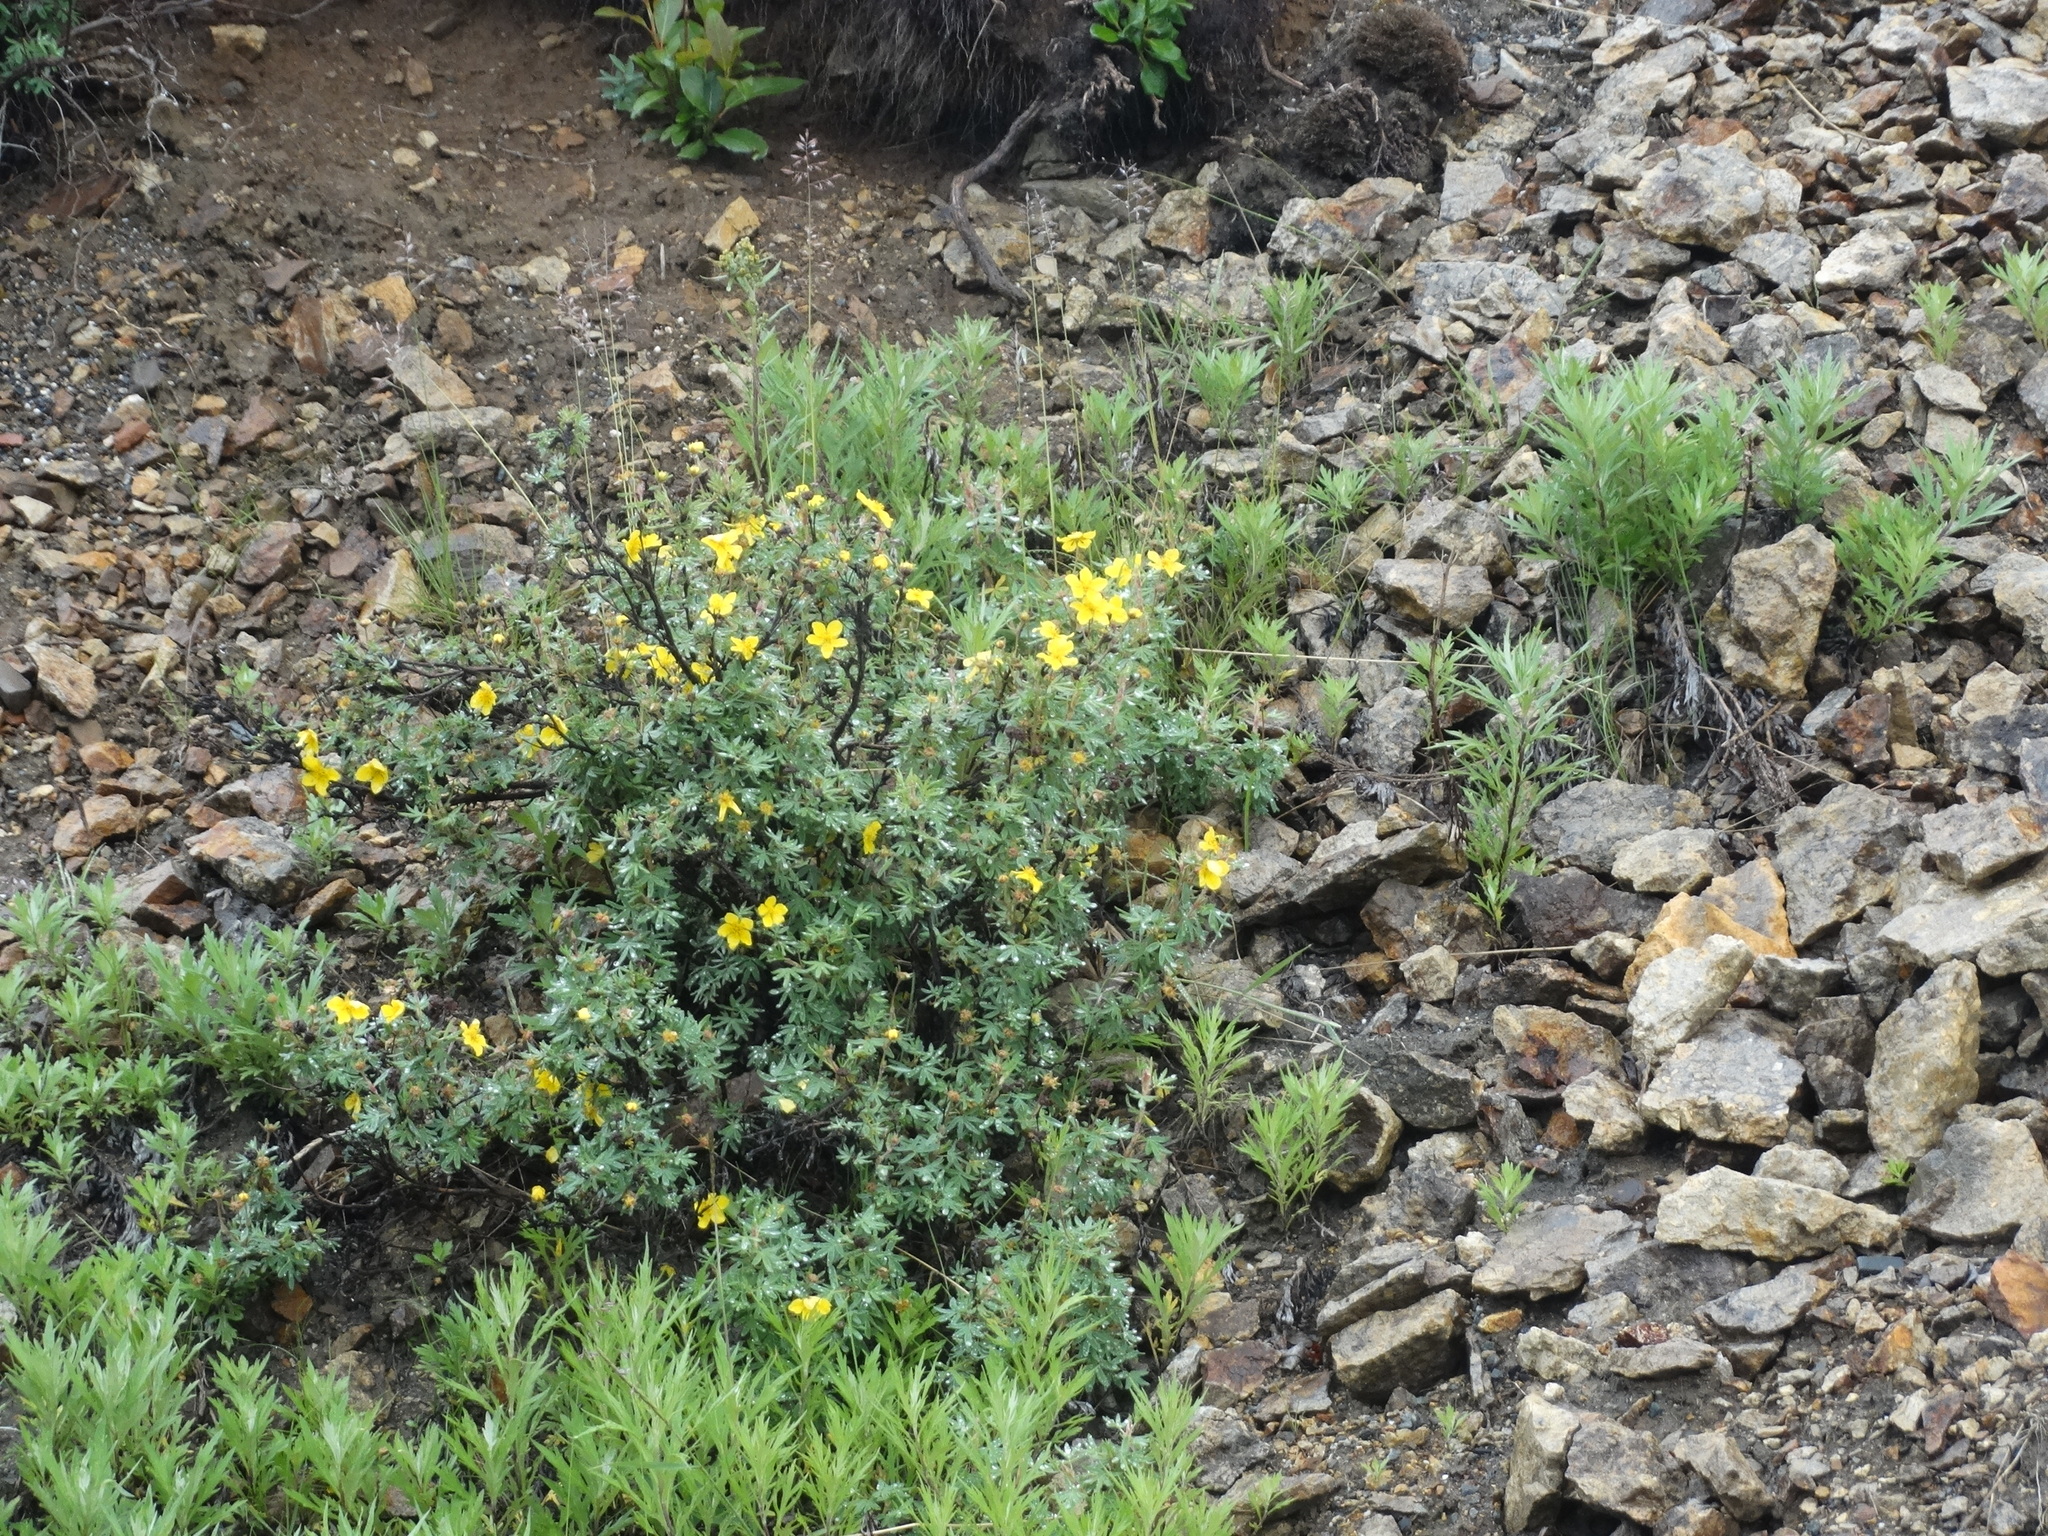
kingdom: Plantae
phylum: Tracheophyta
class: Magnoliopsida
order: Rosales
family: Rosaceae
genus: Dasiphora
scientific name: Dasiphora fruticosa
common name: Shrubby cinquefoil
